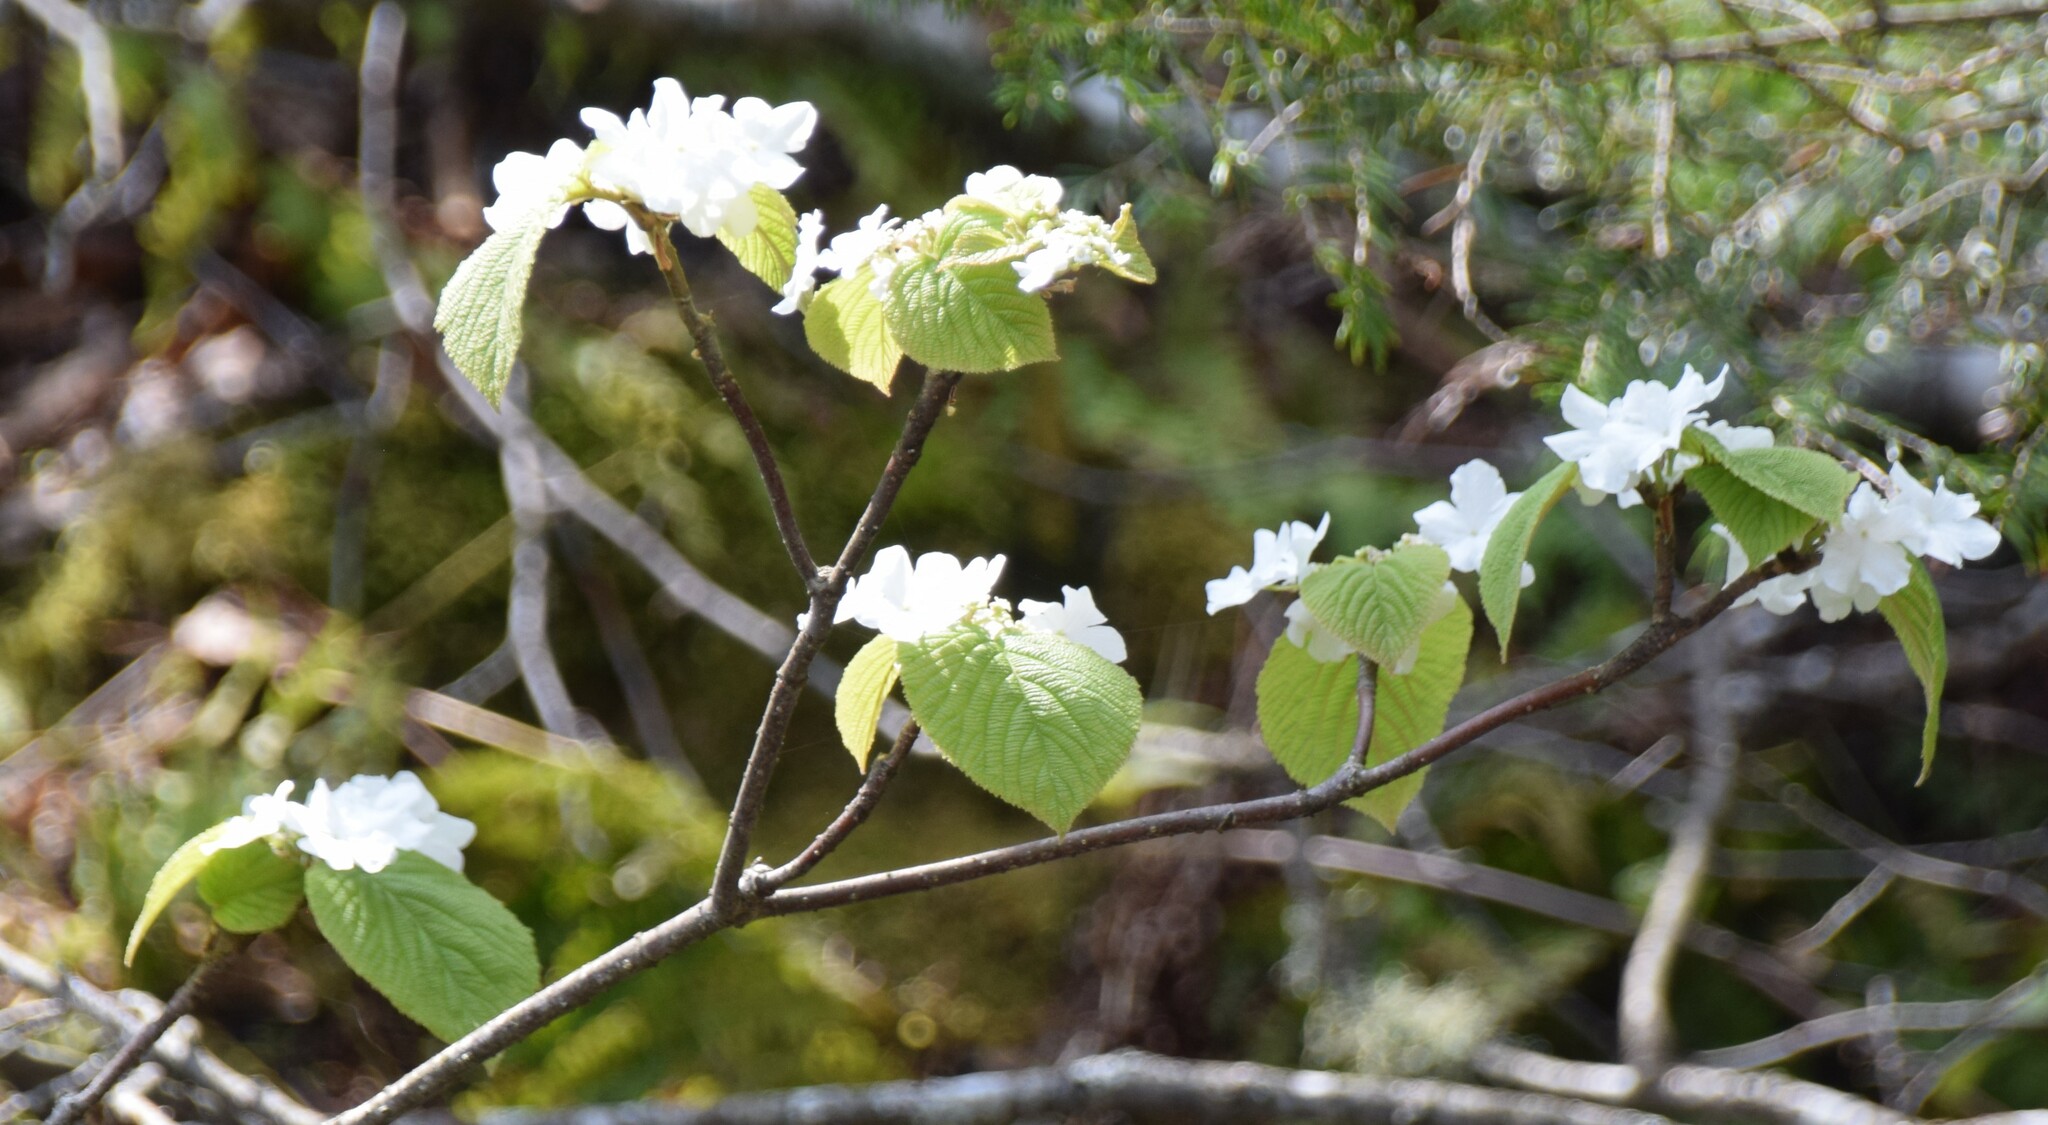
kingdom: Plantae
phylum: Tracheophyta
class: Magnoliopsida
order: Dipsacales
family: Viburnaceae
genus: Viburnum
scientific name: Viburnum lantanoides
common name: Hobblebush
